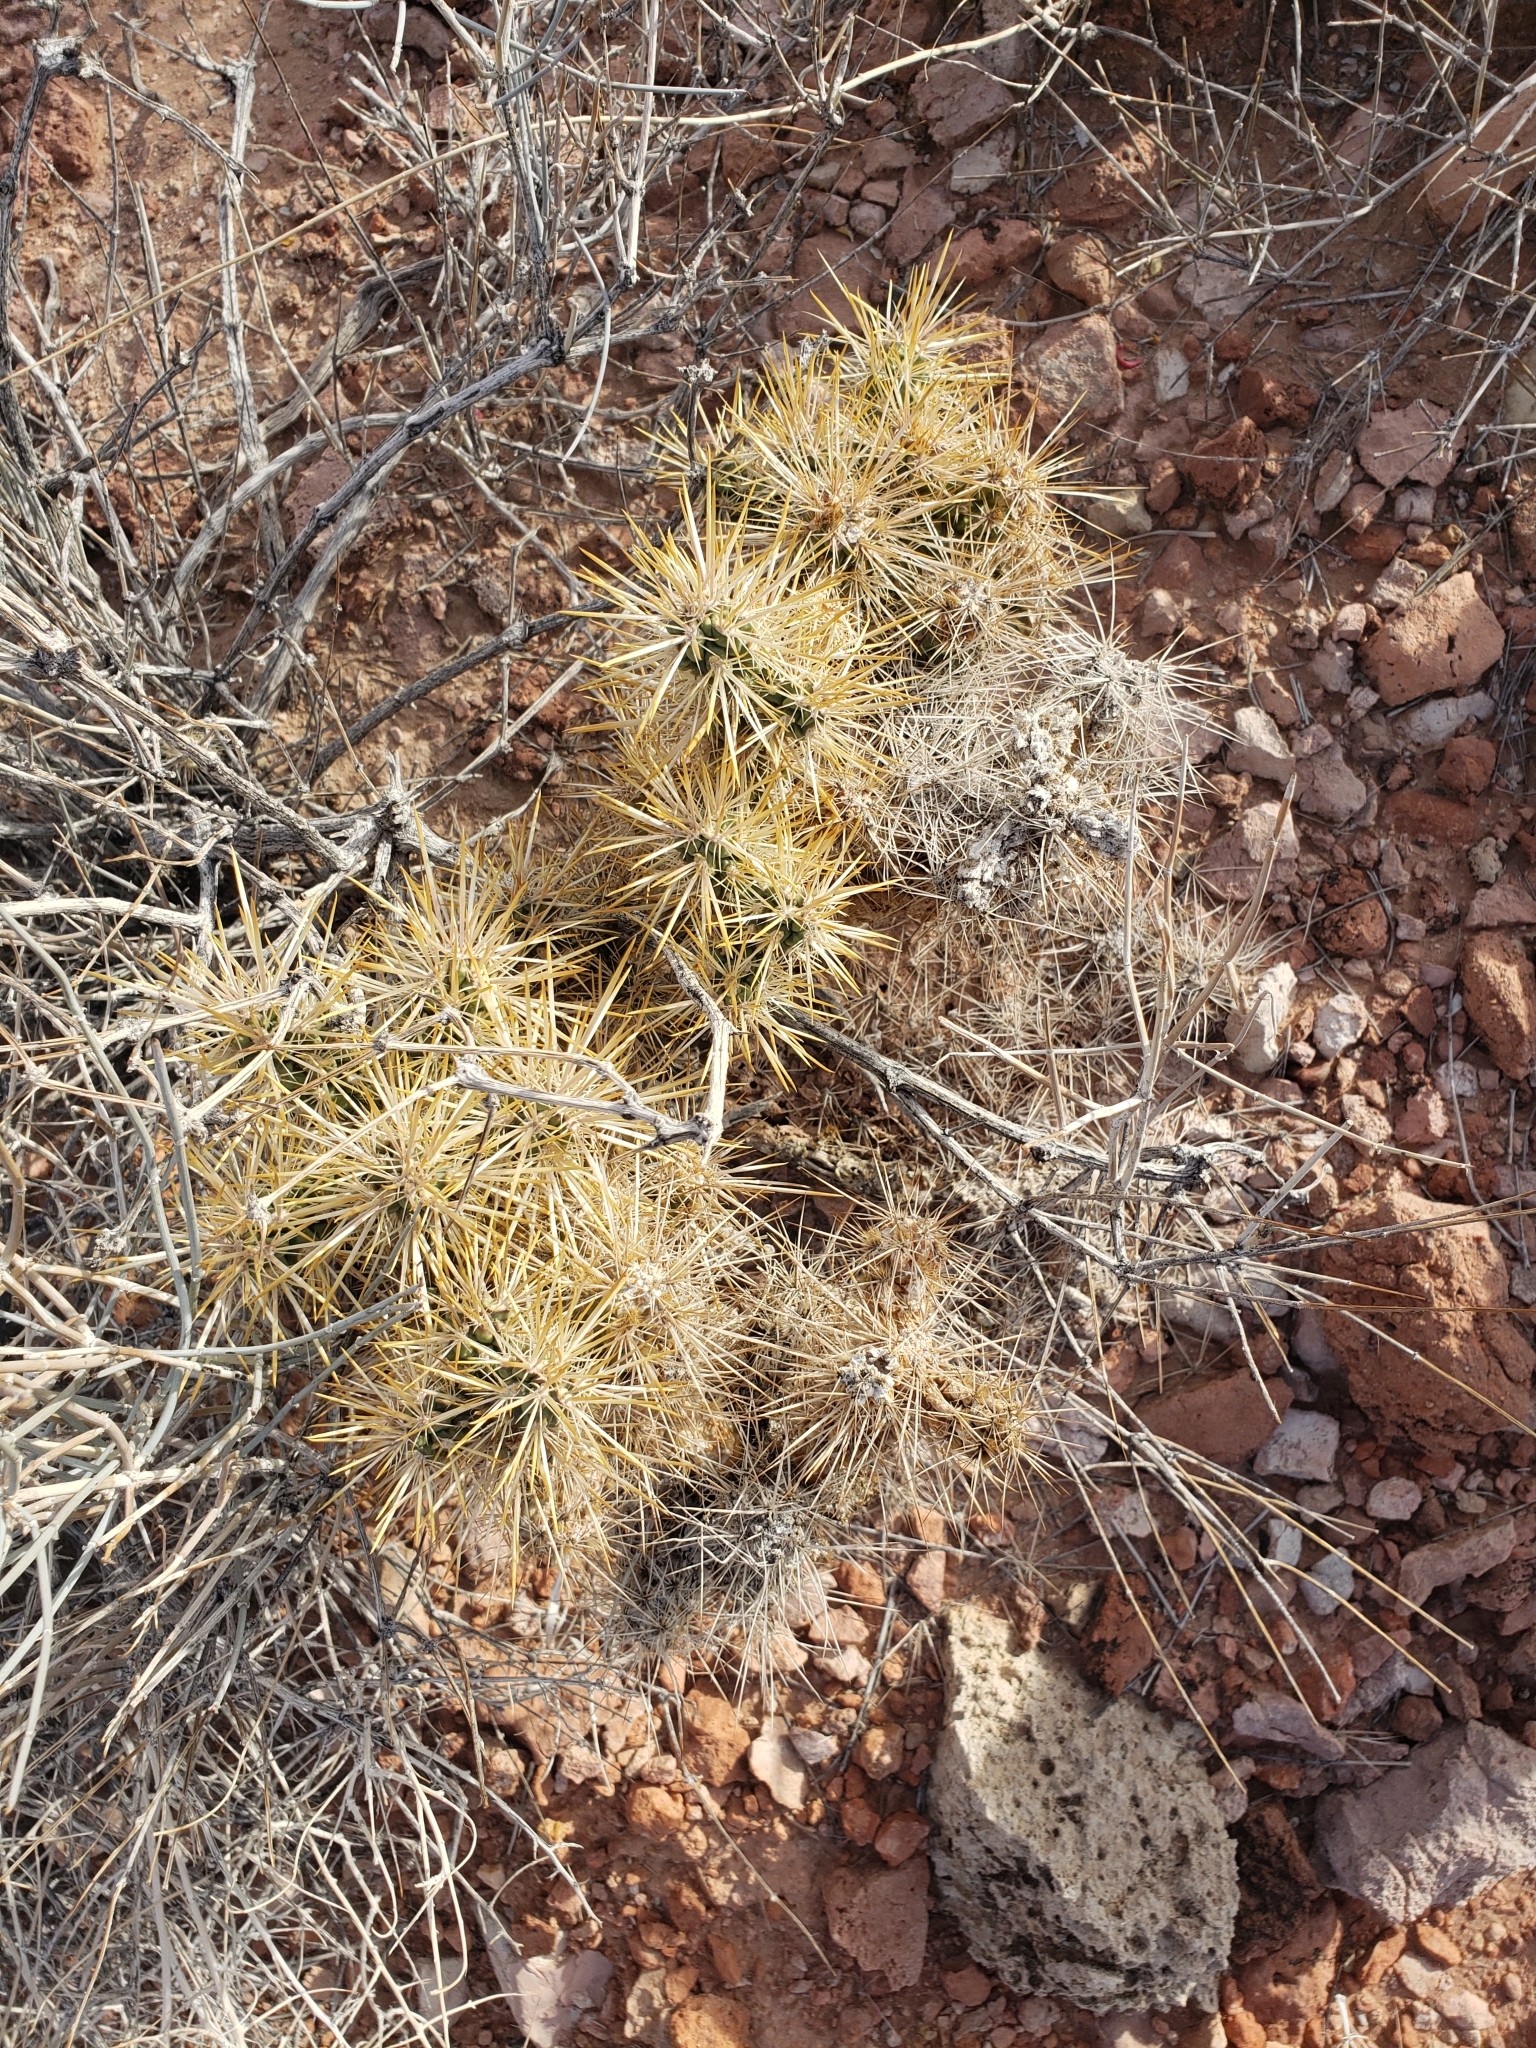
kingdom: Plantae
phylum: Tracheophyta
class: Magnoliopsida
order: Caryophyllales
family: Cactaceae
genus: Cylindropuntia
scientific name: Cylindropuntia echinocarpa
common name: Ground cholla
